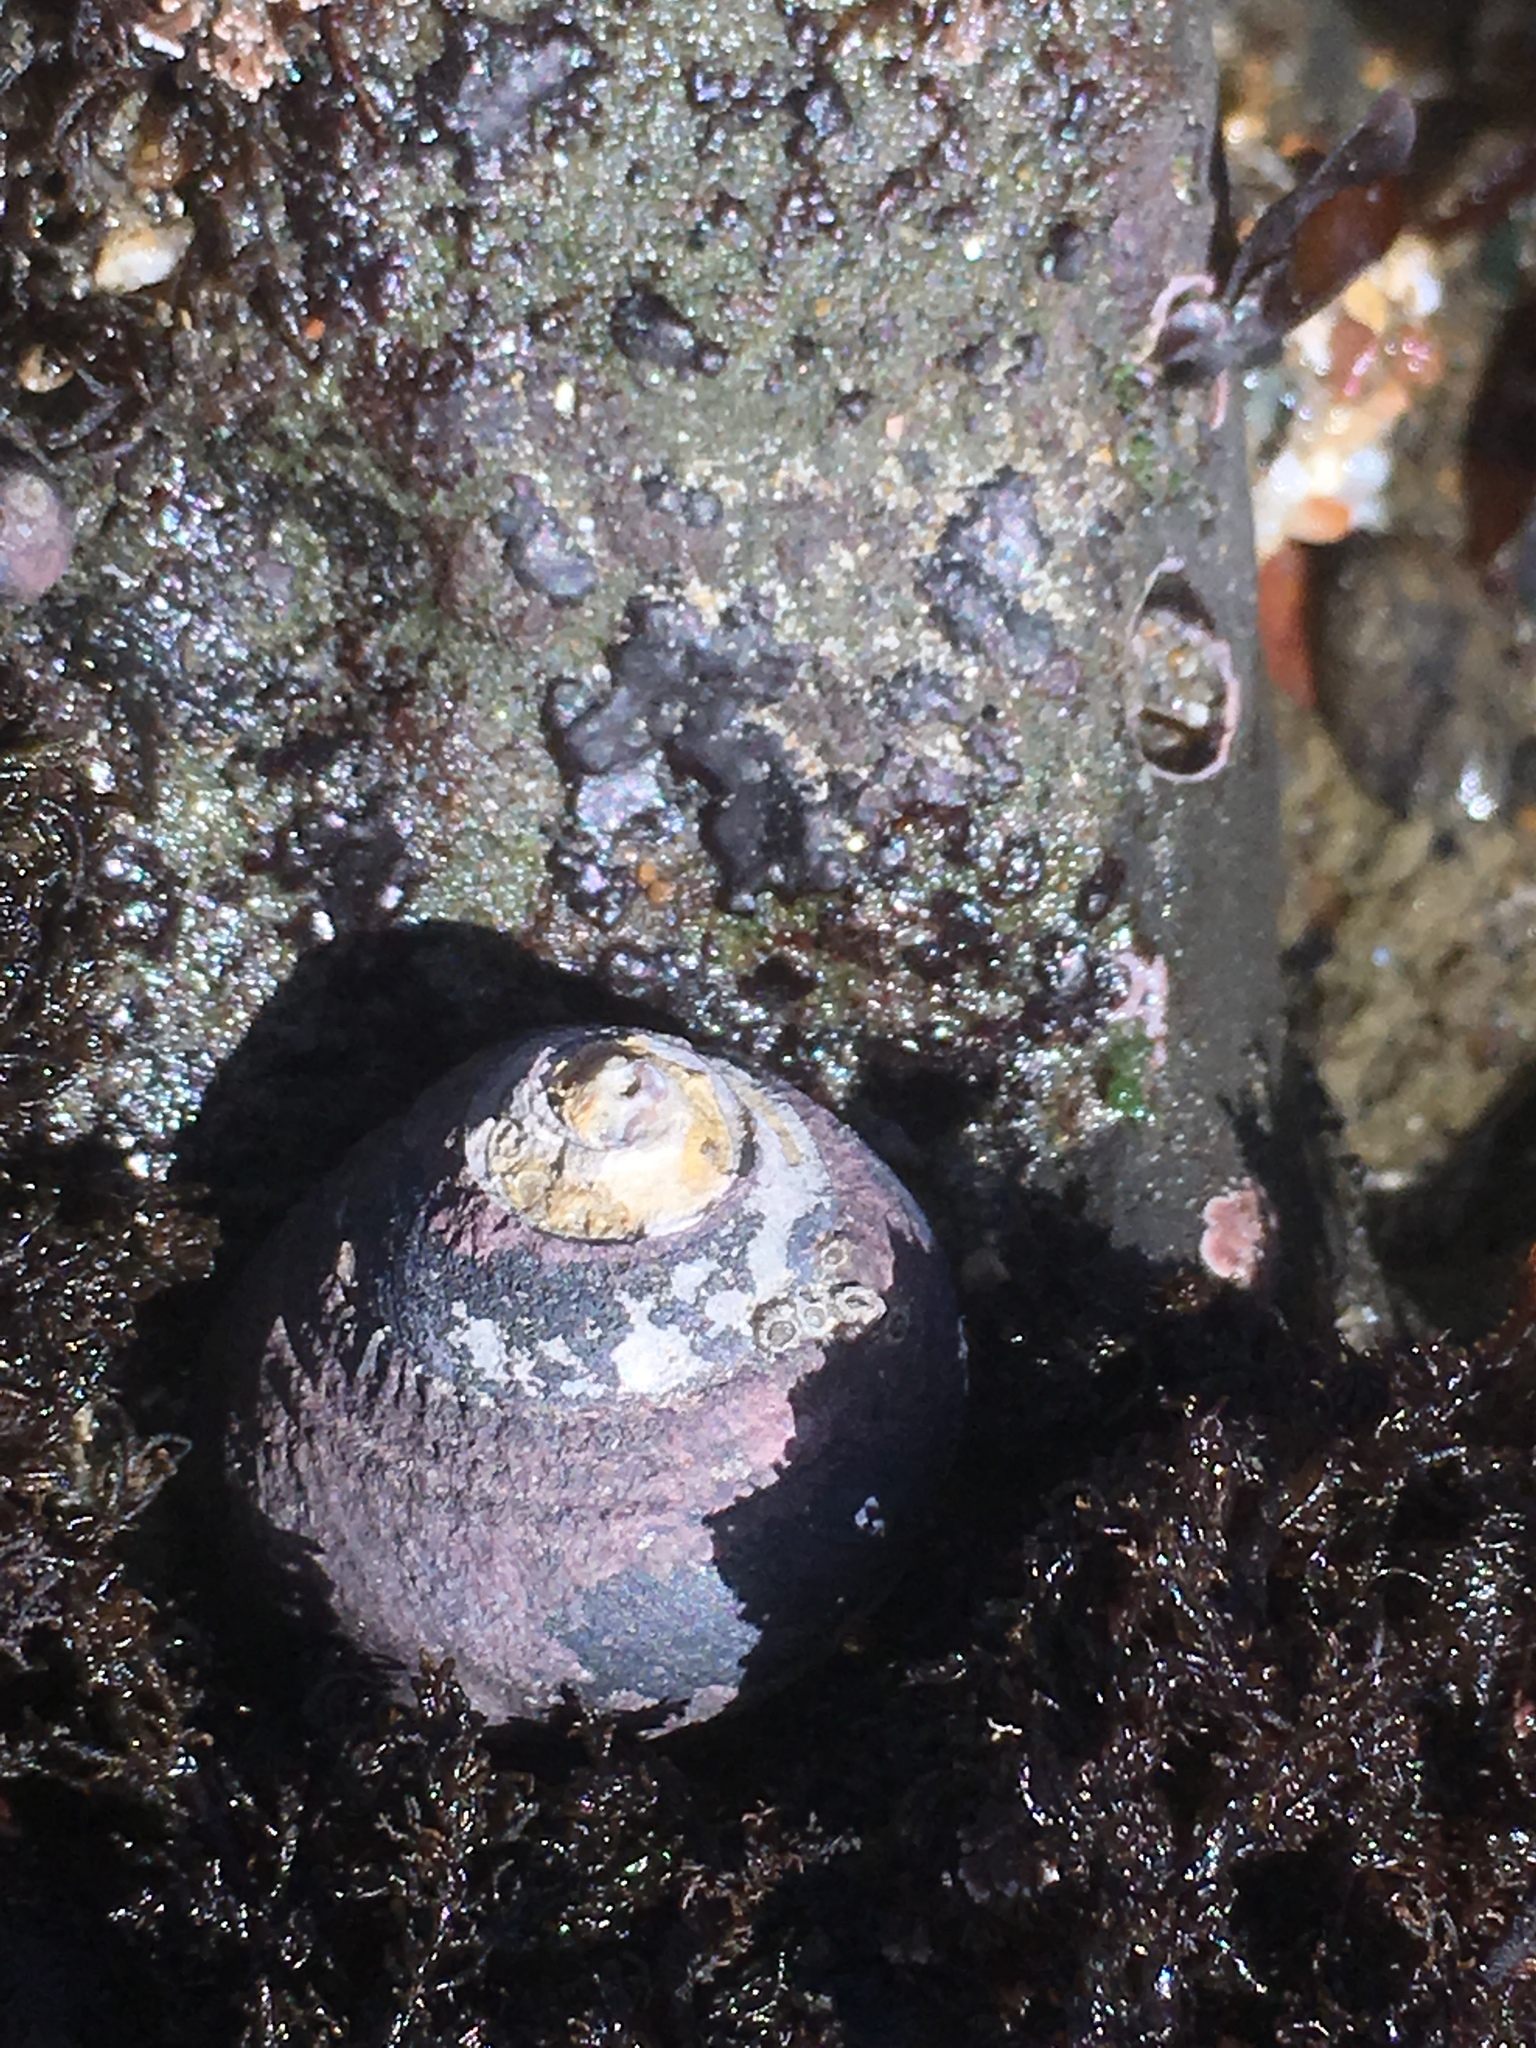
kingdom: Animalia
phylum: Mollusca
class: Gastropoda
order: Trochida
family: Tegulidae
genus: Tegula
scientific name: Tegula funebralis
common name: Black tegula
